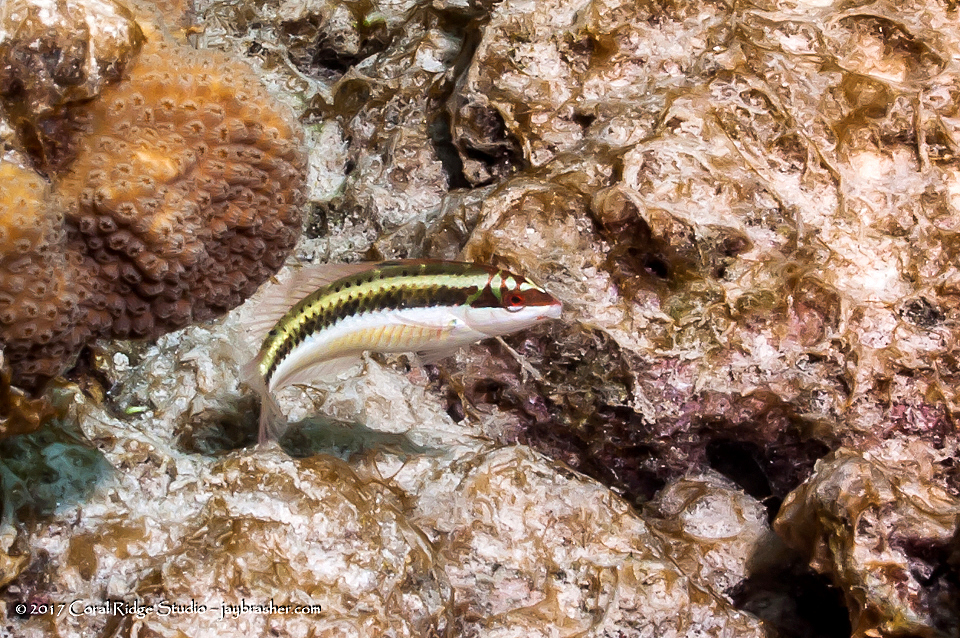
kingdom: Animalia
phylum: Chordata
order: Perciformes
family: Labridae
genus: Halichoeres
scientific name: Halichoeres maculipinna
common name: Clown wrasse
